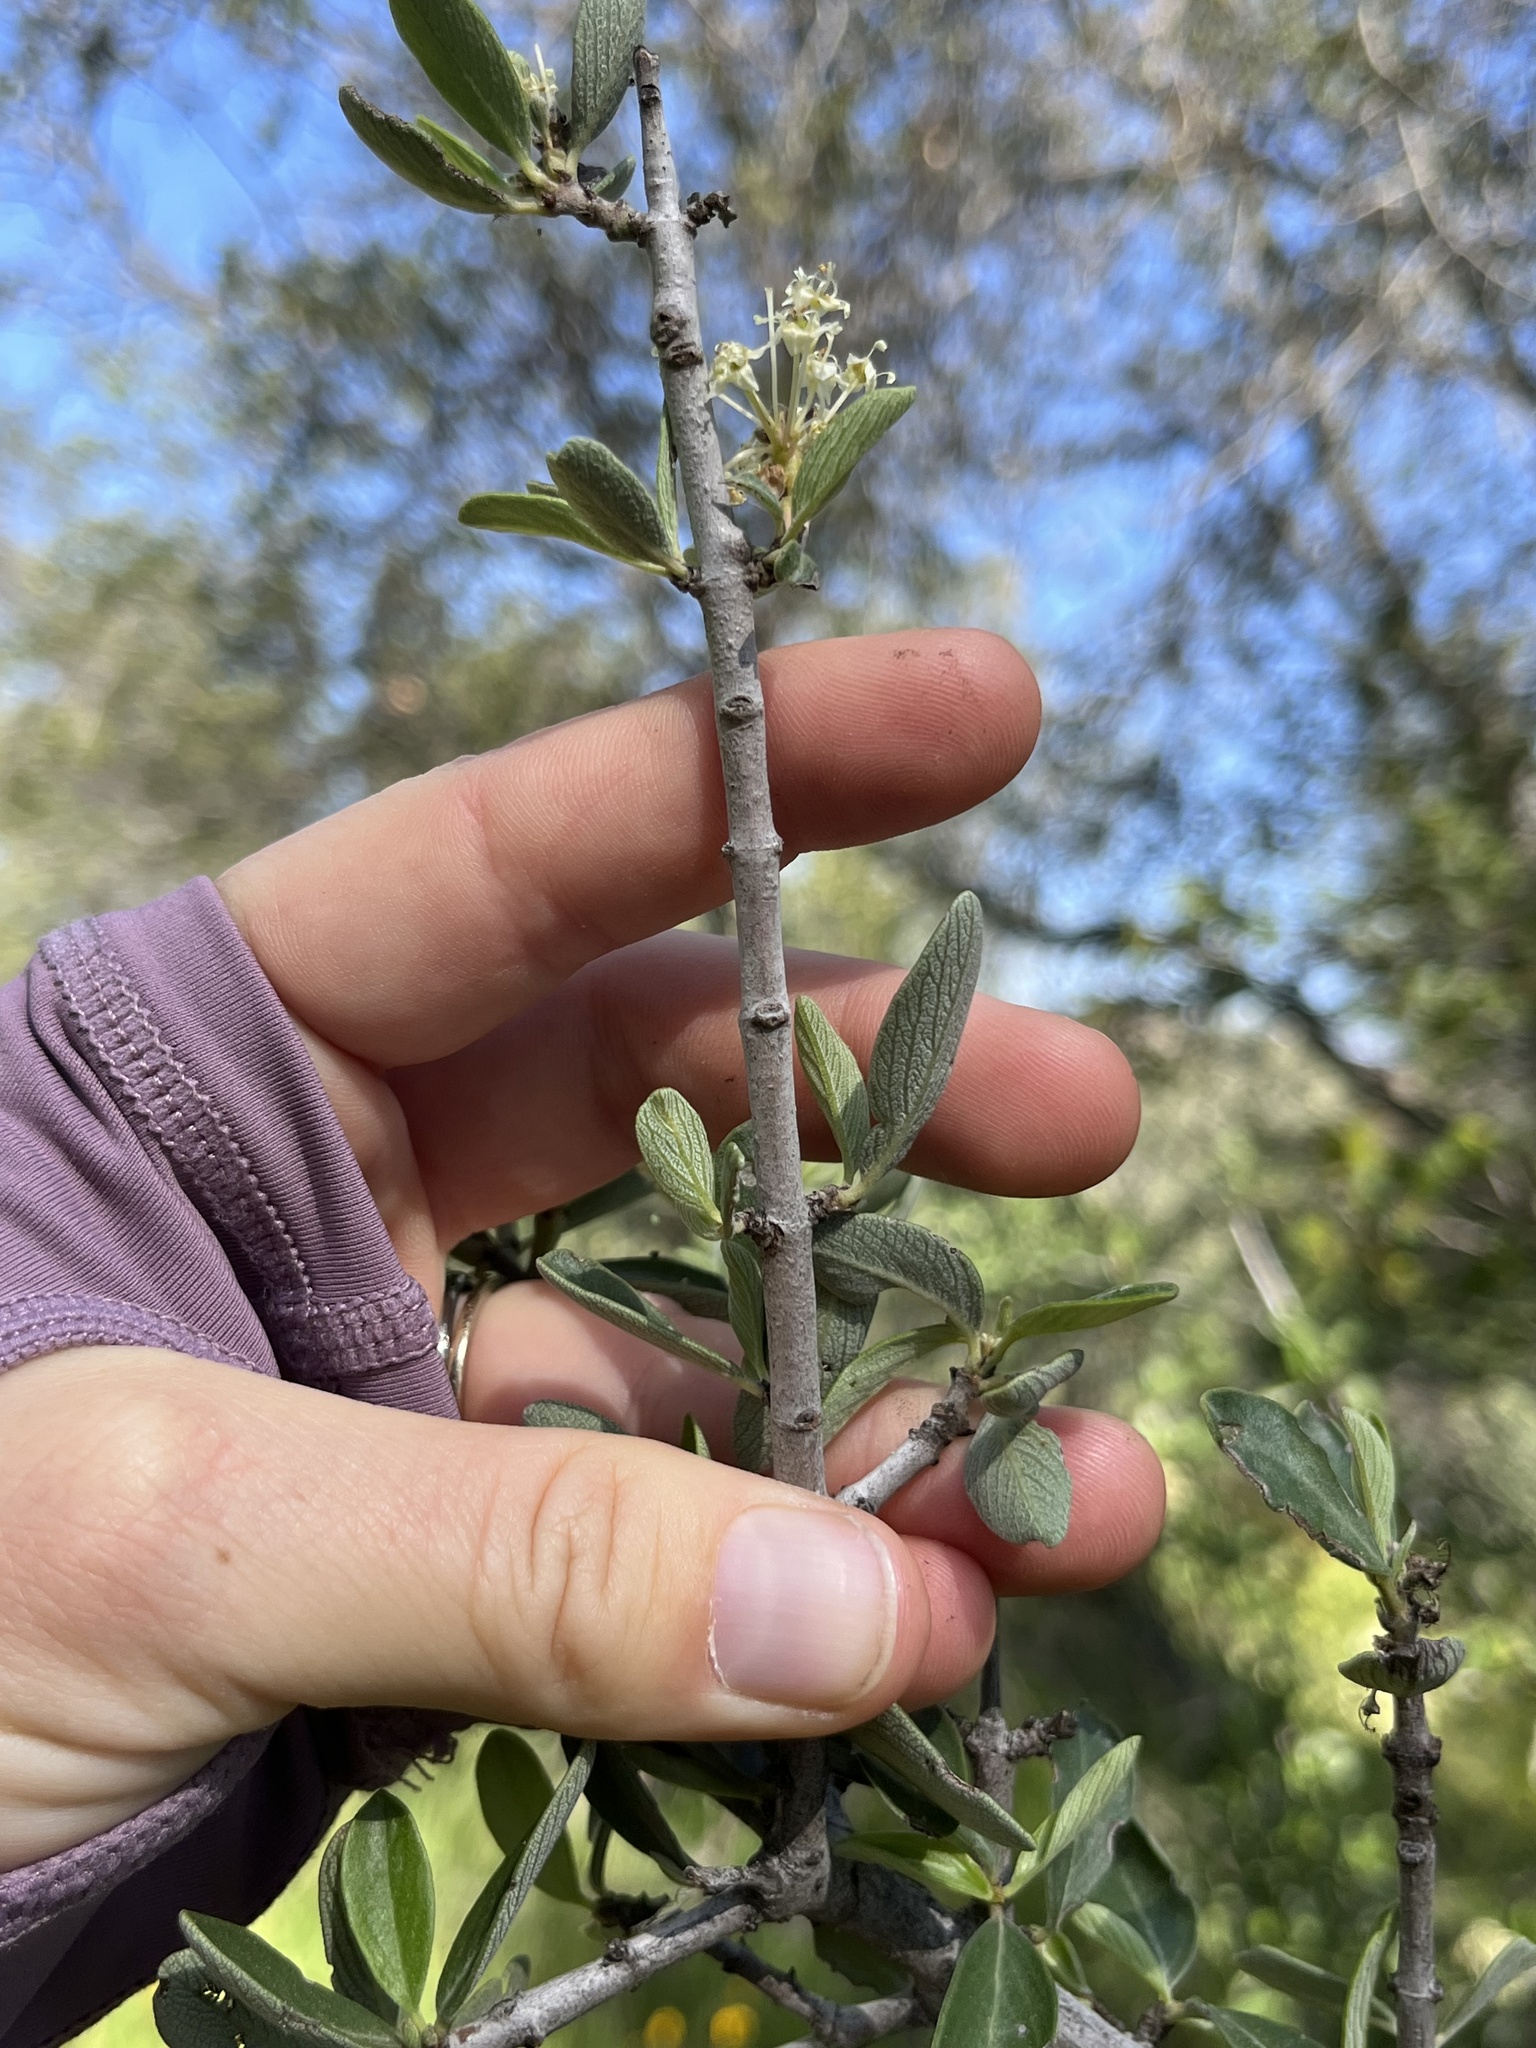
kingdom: Plantae
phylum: Tracheophyta
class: Magnoliopsida
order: Rosales
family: Rhamnaceae
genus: Ceanothus
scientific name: Ceanothus cuneatus
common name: Cuneate ceanothus
